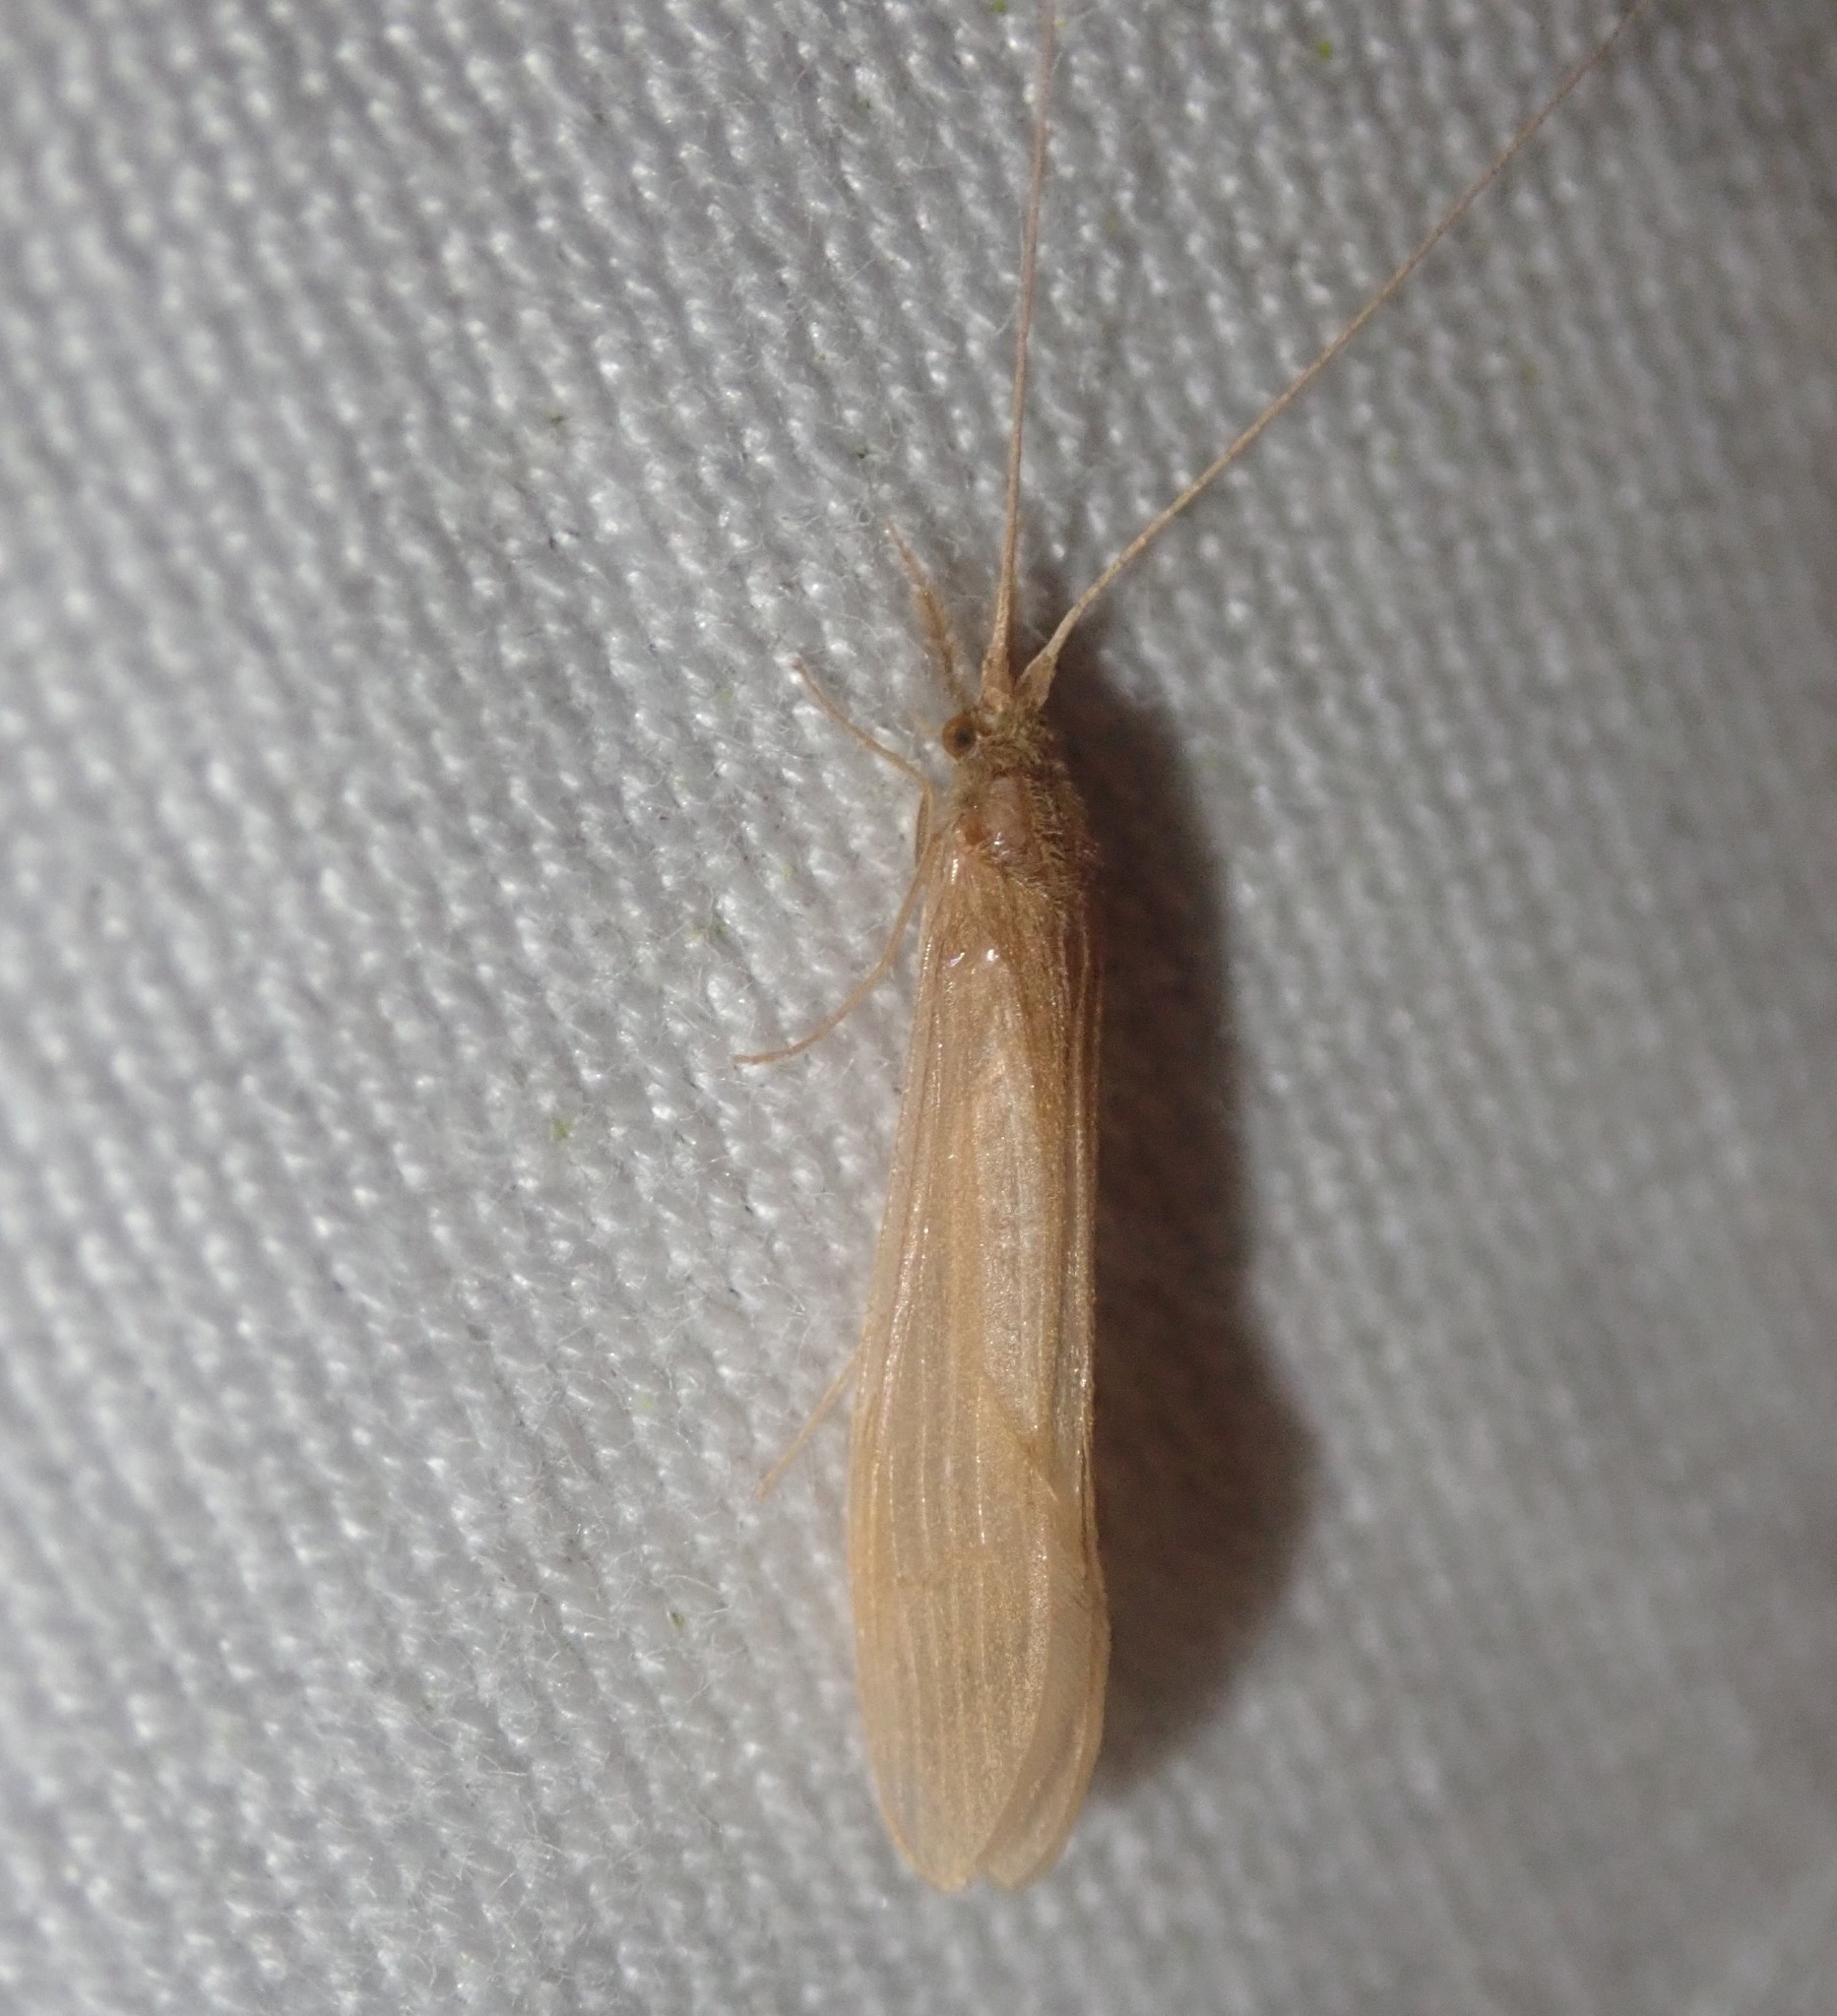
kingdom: Animalia
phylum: Arthropoda
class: Insecta
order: Trichoptera
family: Leptoceridae
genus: Oecetis
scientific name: Oecetis ochracea
